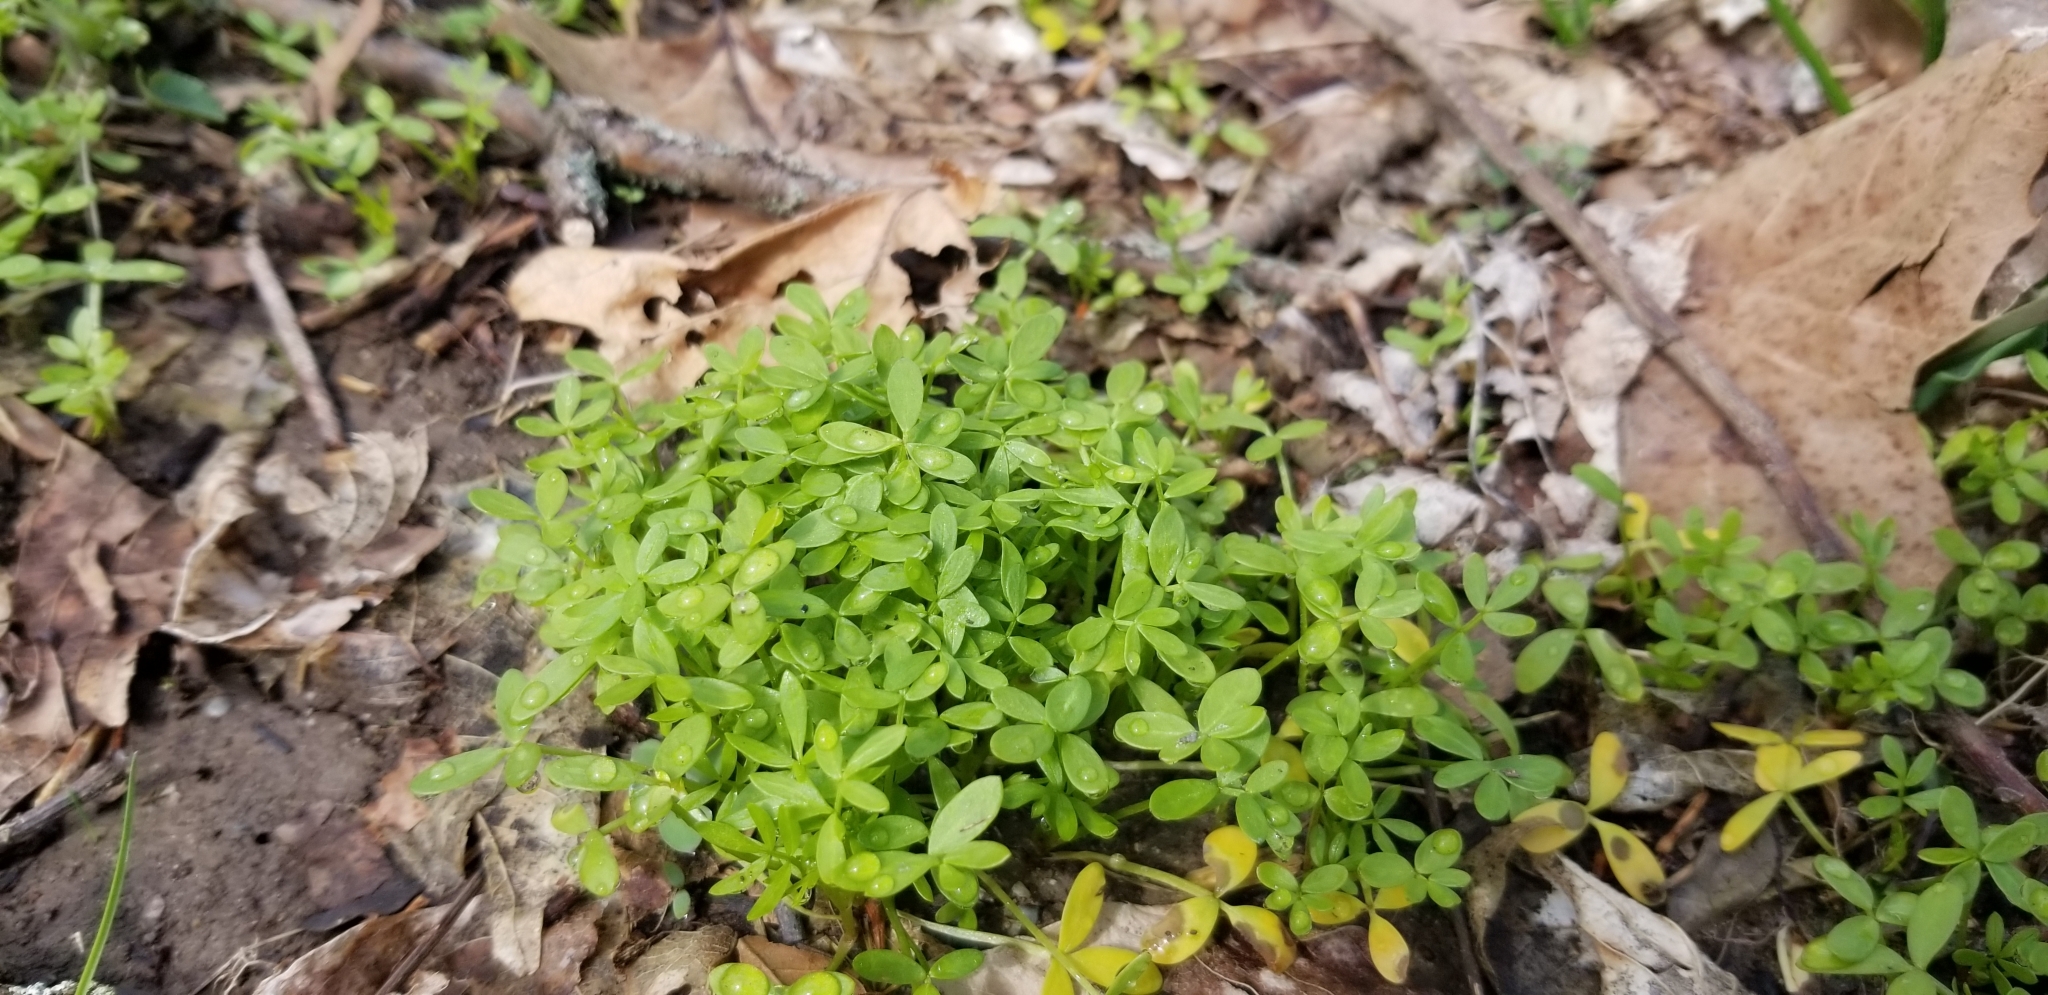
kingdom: Plantae
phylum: Tracheophyta
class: Magnoliopsida
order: Brassicales
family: Limnanthaceae
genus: Floerkea
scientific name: Floerkea proserpinacoides
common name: False mermaid
